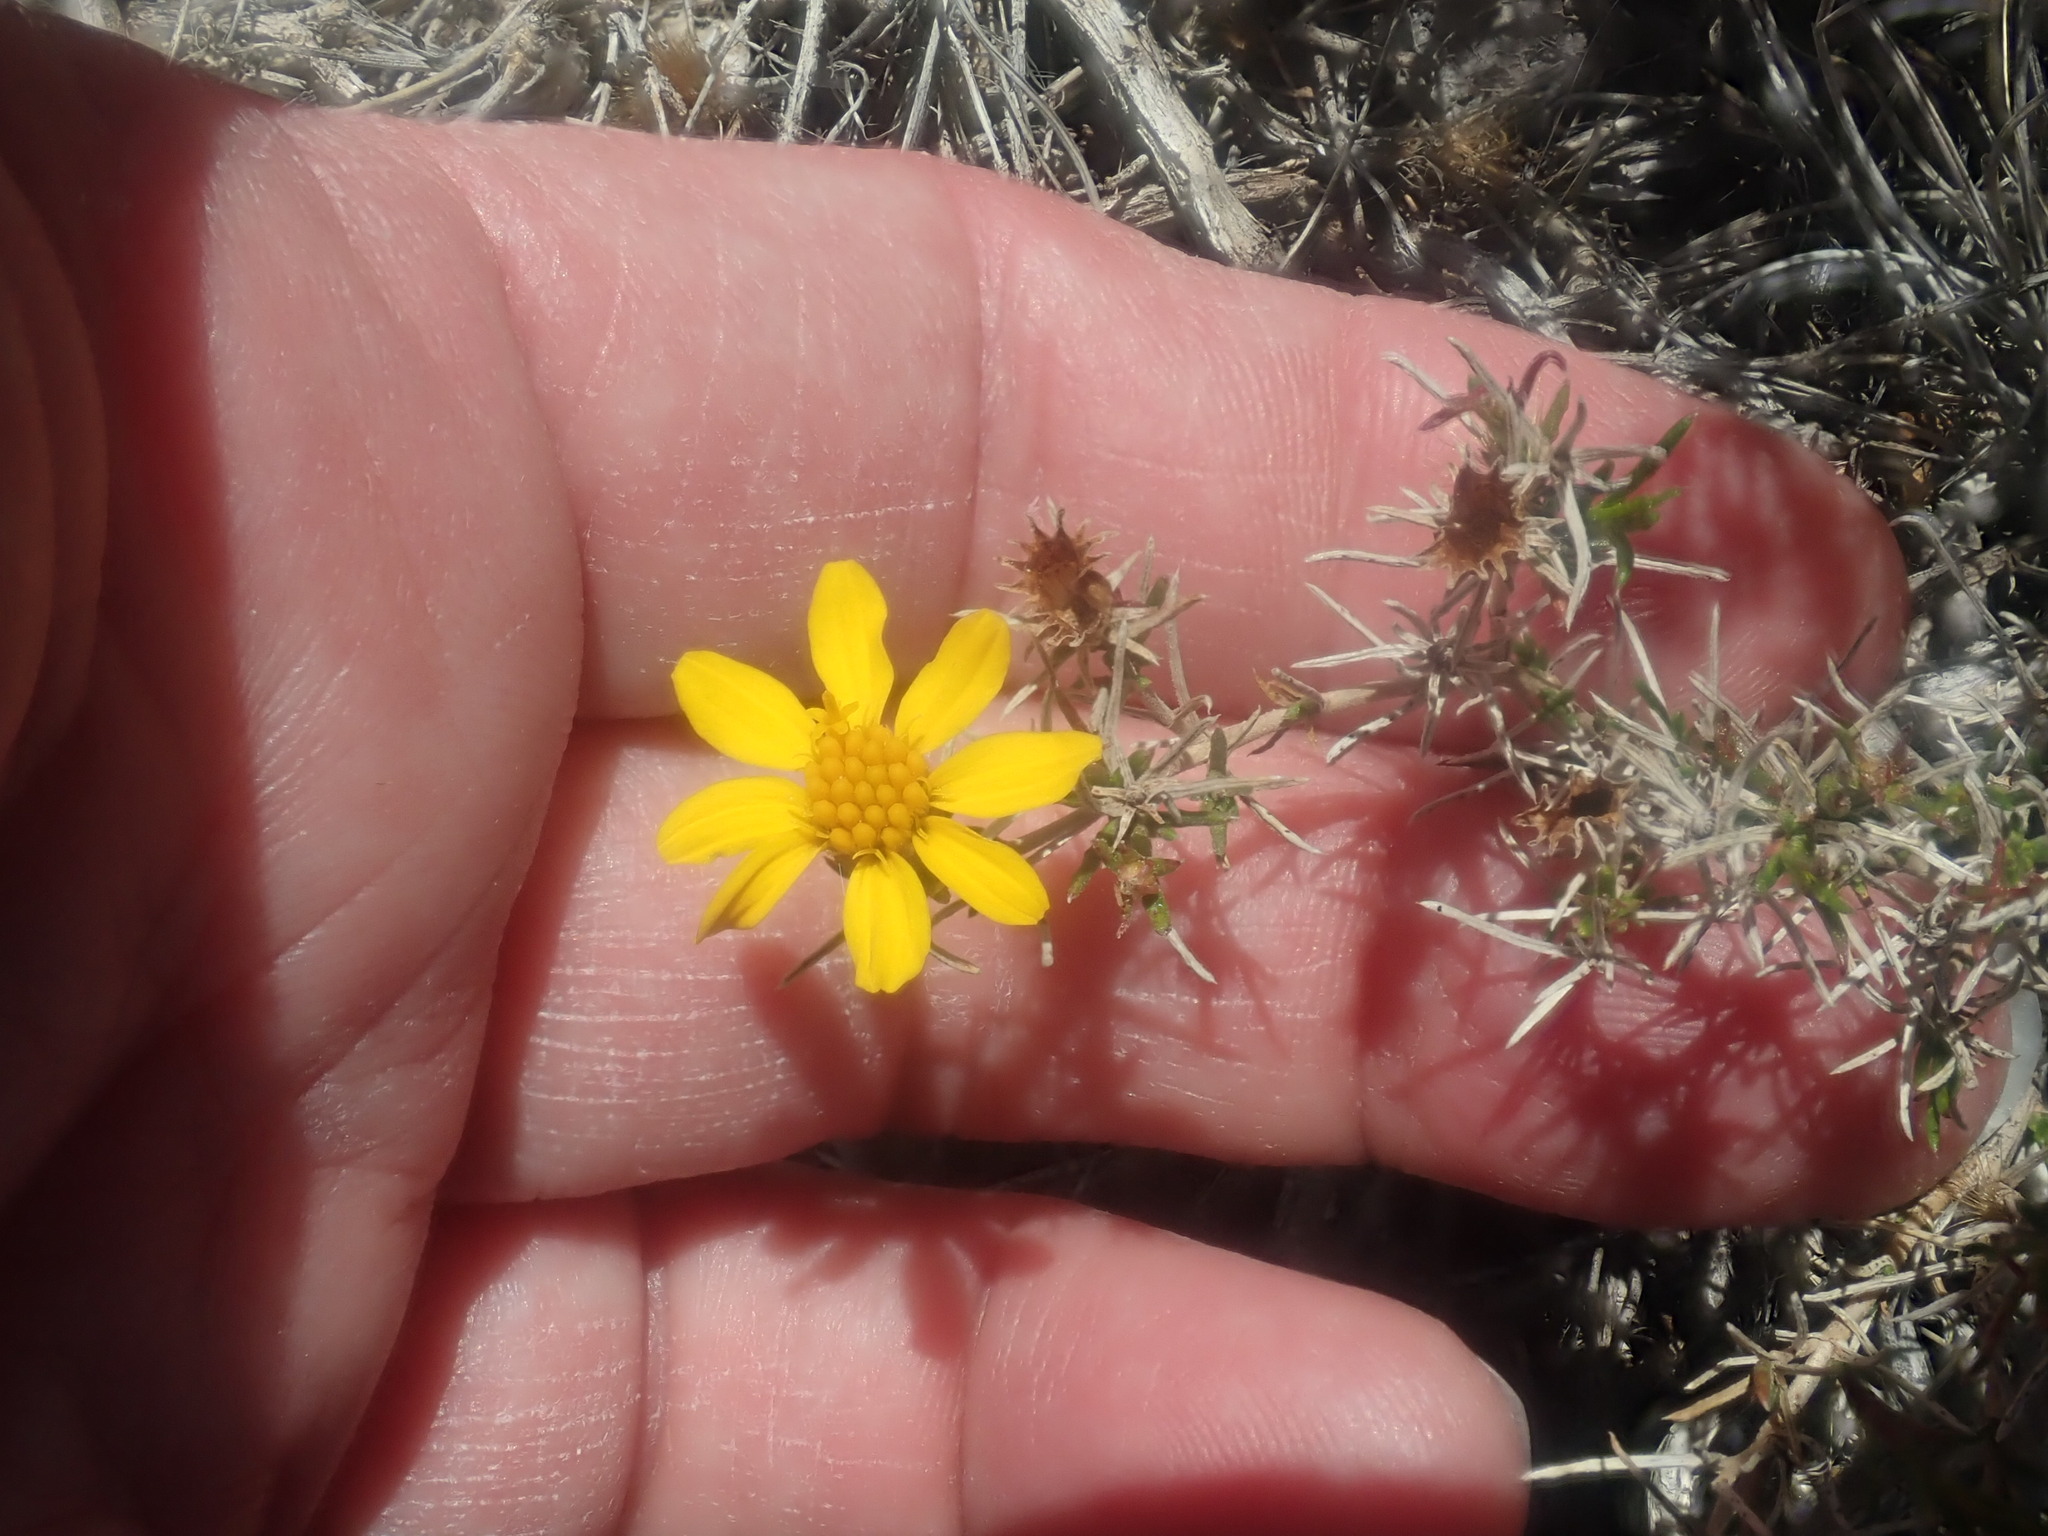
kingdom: Plantae
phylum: Tracheophyta
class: Magnoliopsida
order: Asterales
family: Asteraceae
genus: Thymophylla
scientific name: Thymophylla acerosa
